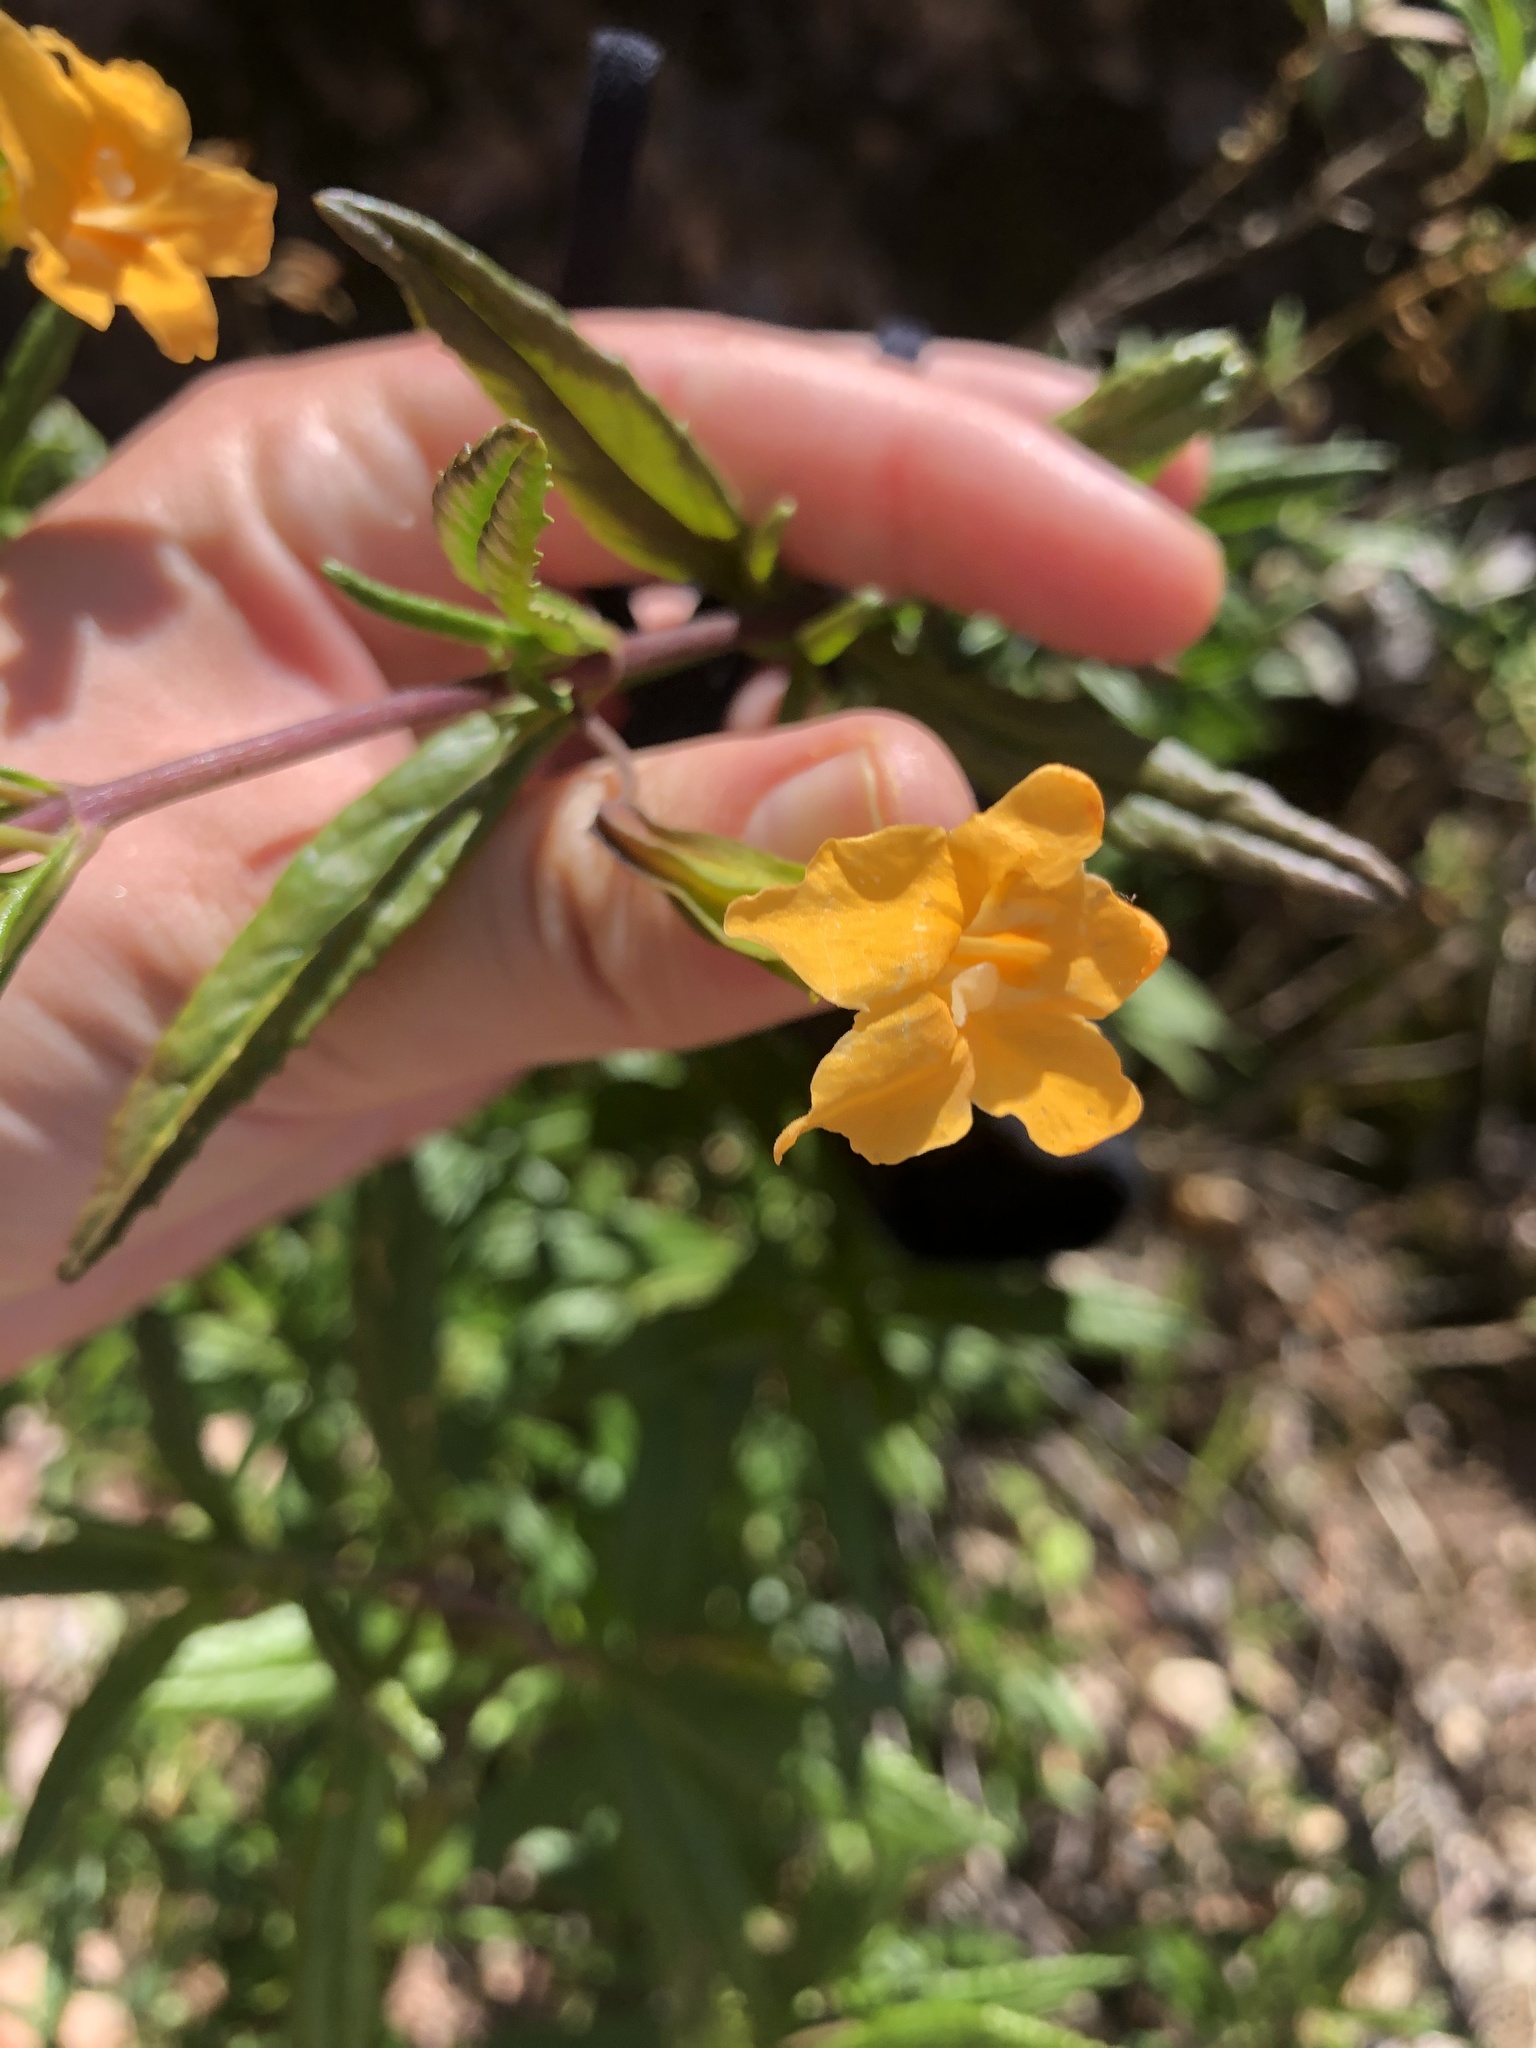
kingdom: Plantae
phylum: Tracheophyta
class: Magnoliopsida
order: Lamiales
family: Phrymaceae
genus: Diplacus
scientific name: Diplacus aurantiacus
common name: Bush monkey-flower
